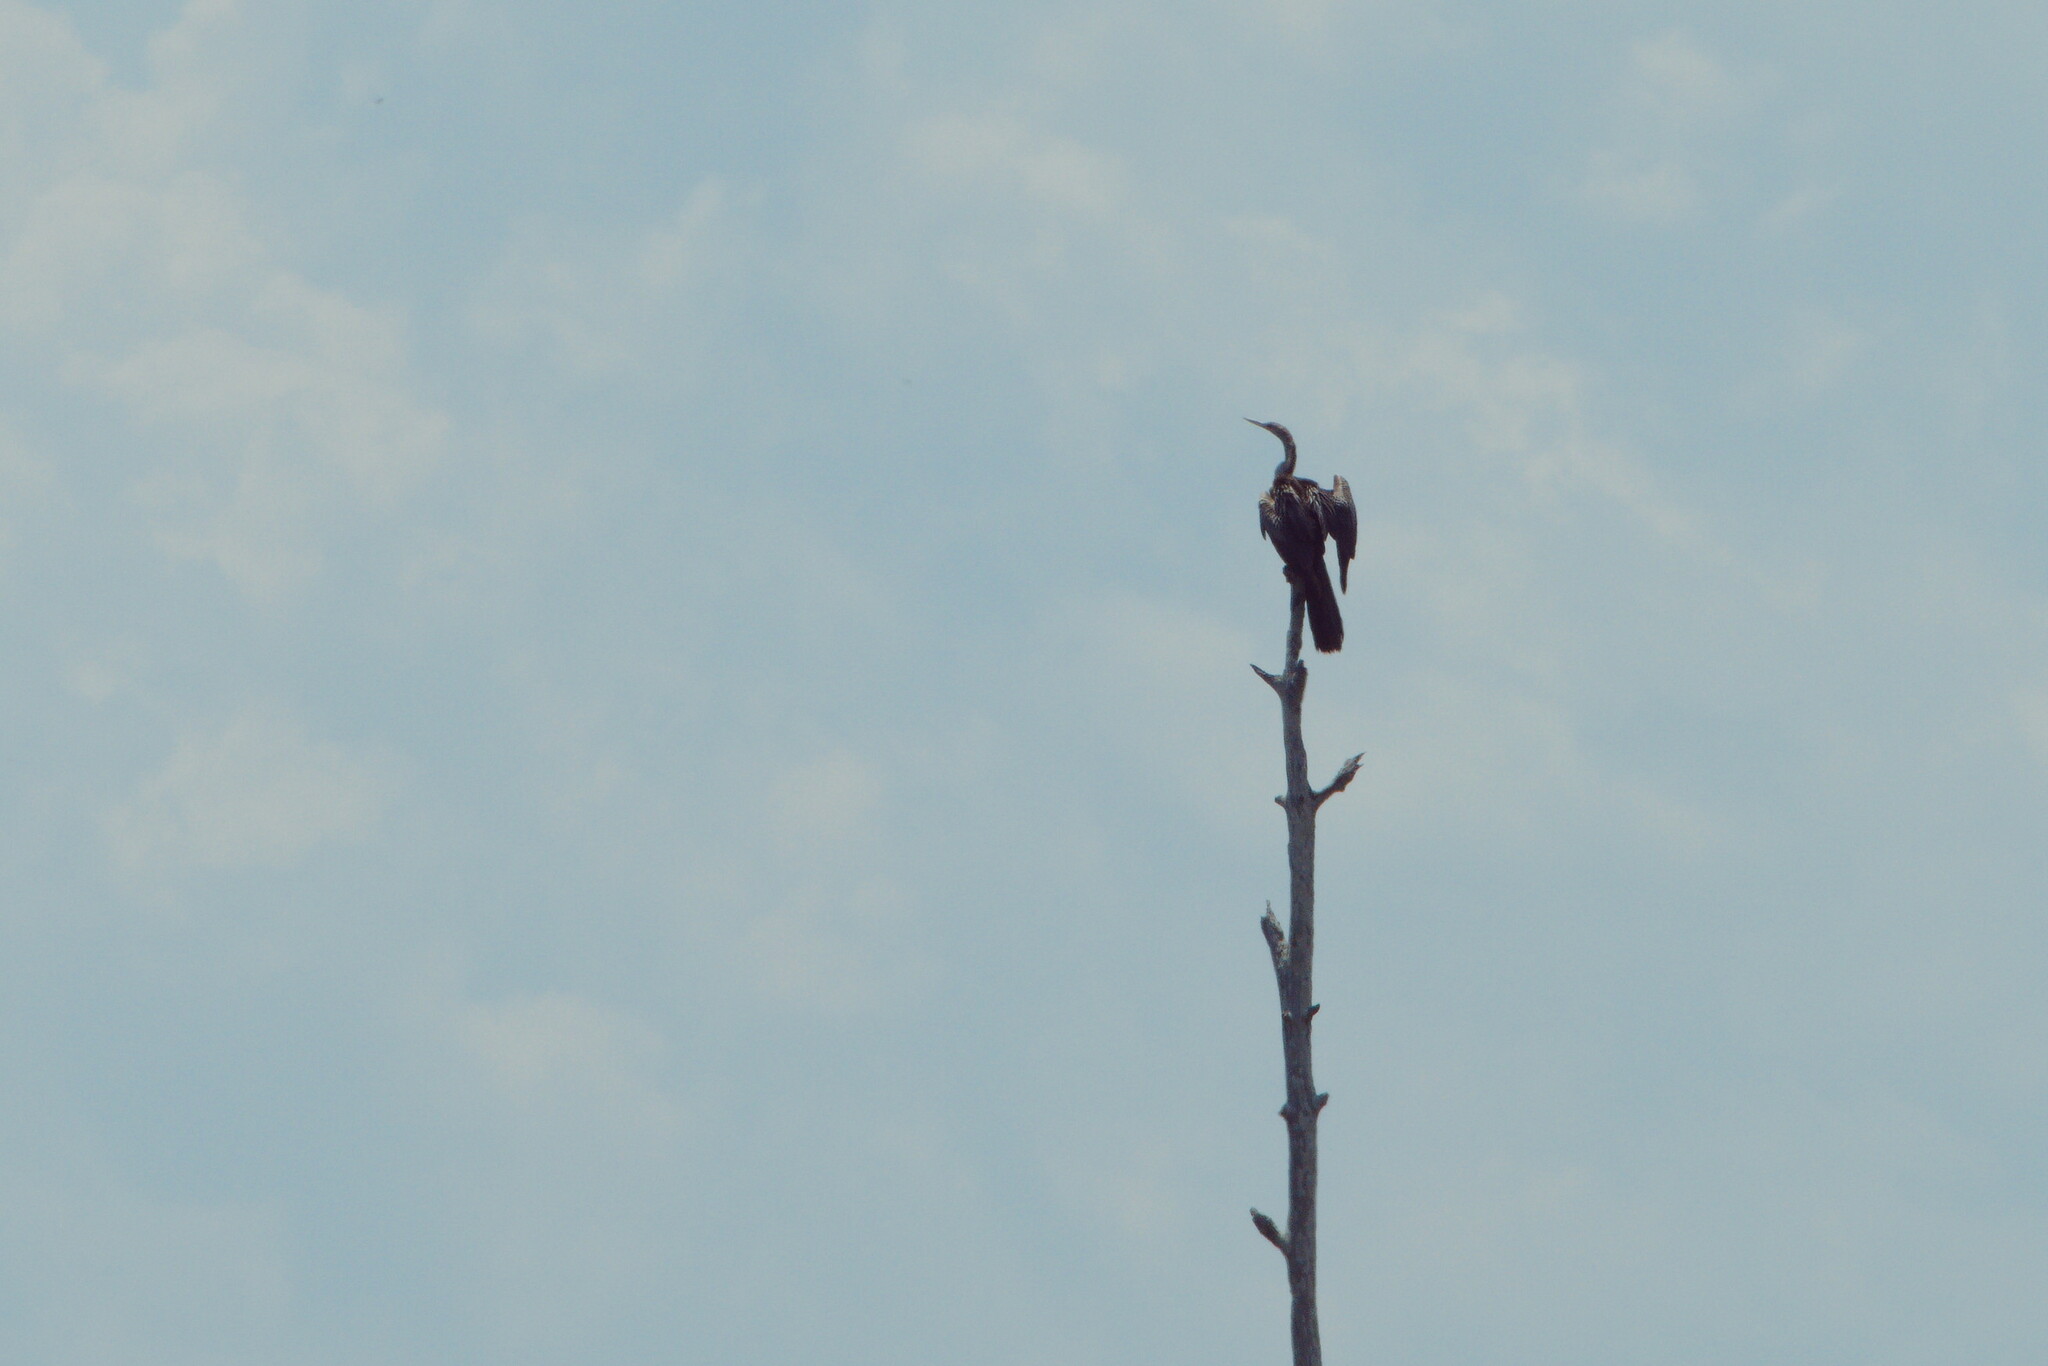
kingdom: Animalia
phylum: Chordata
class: Aves
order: Suliformes
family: Anhingidae
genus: Anhinga
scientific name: Anhinga anhinga
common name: Anhinga
